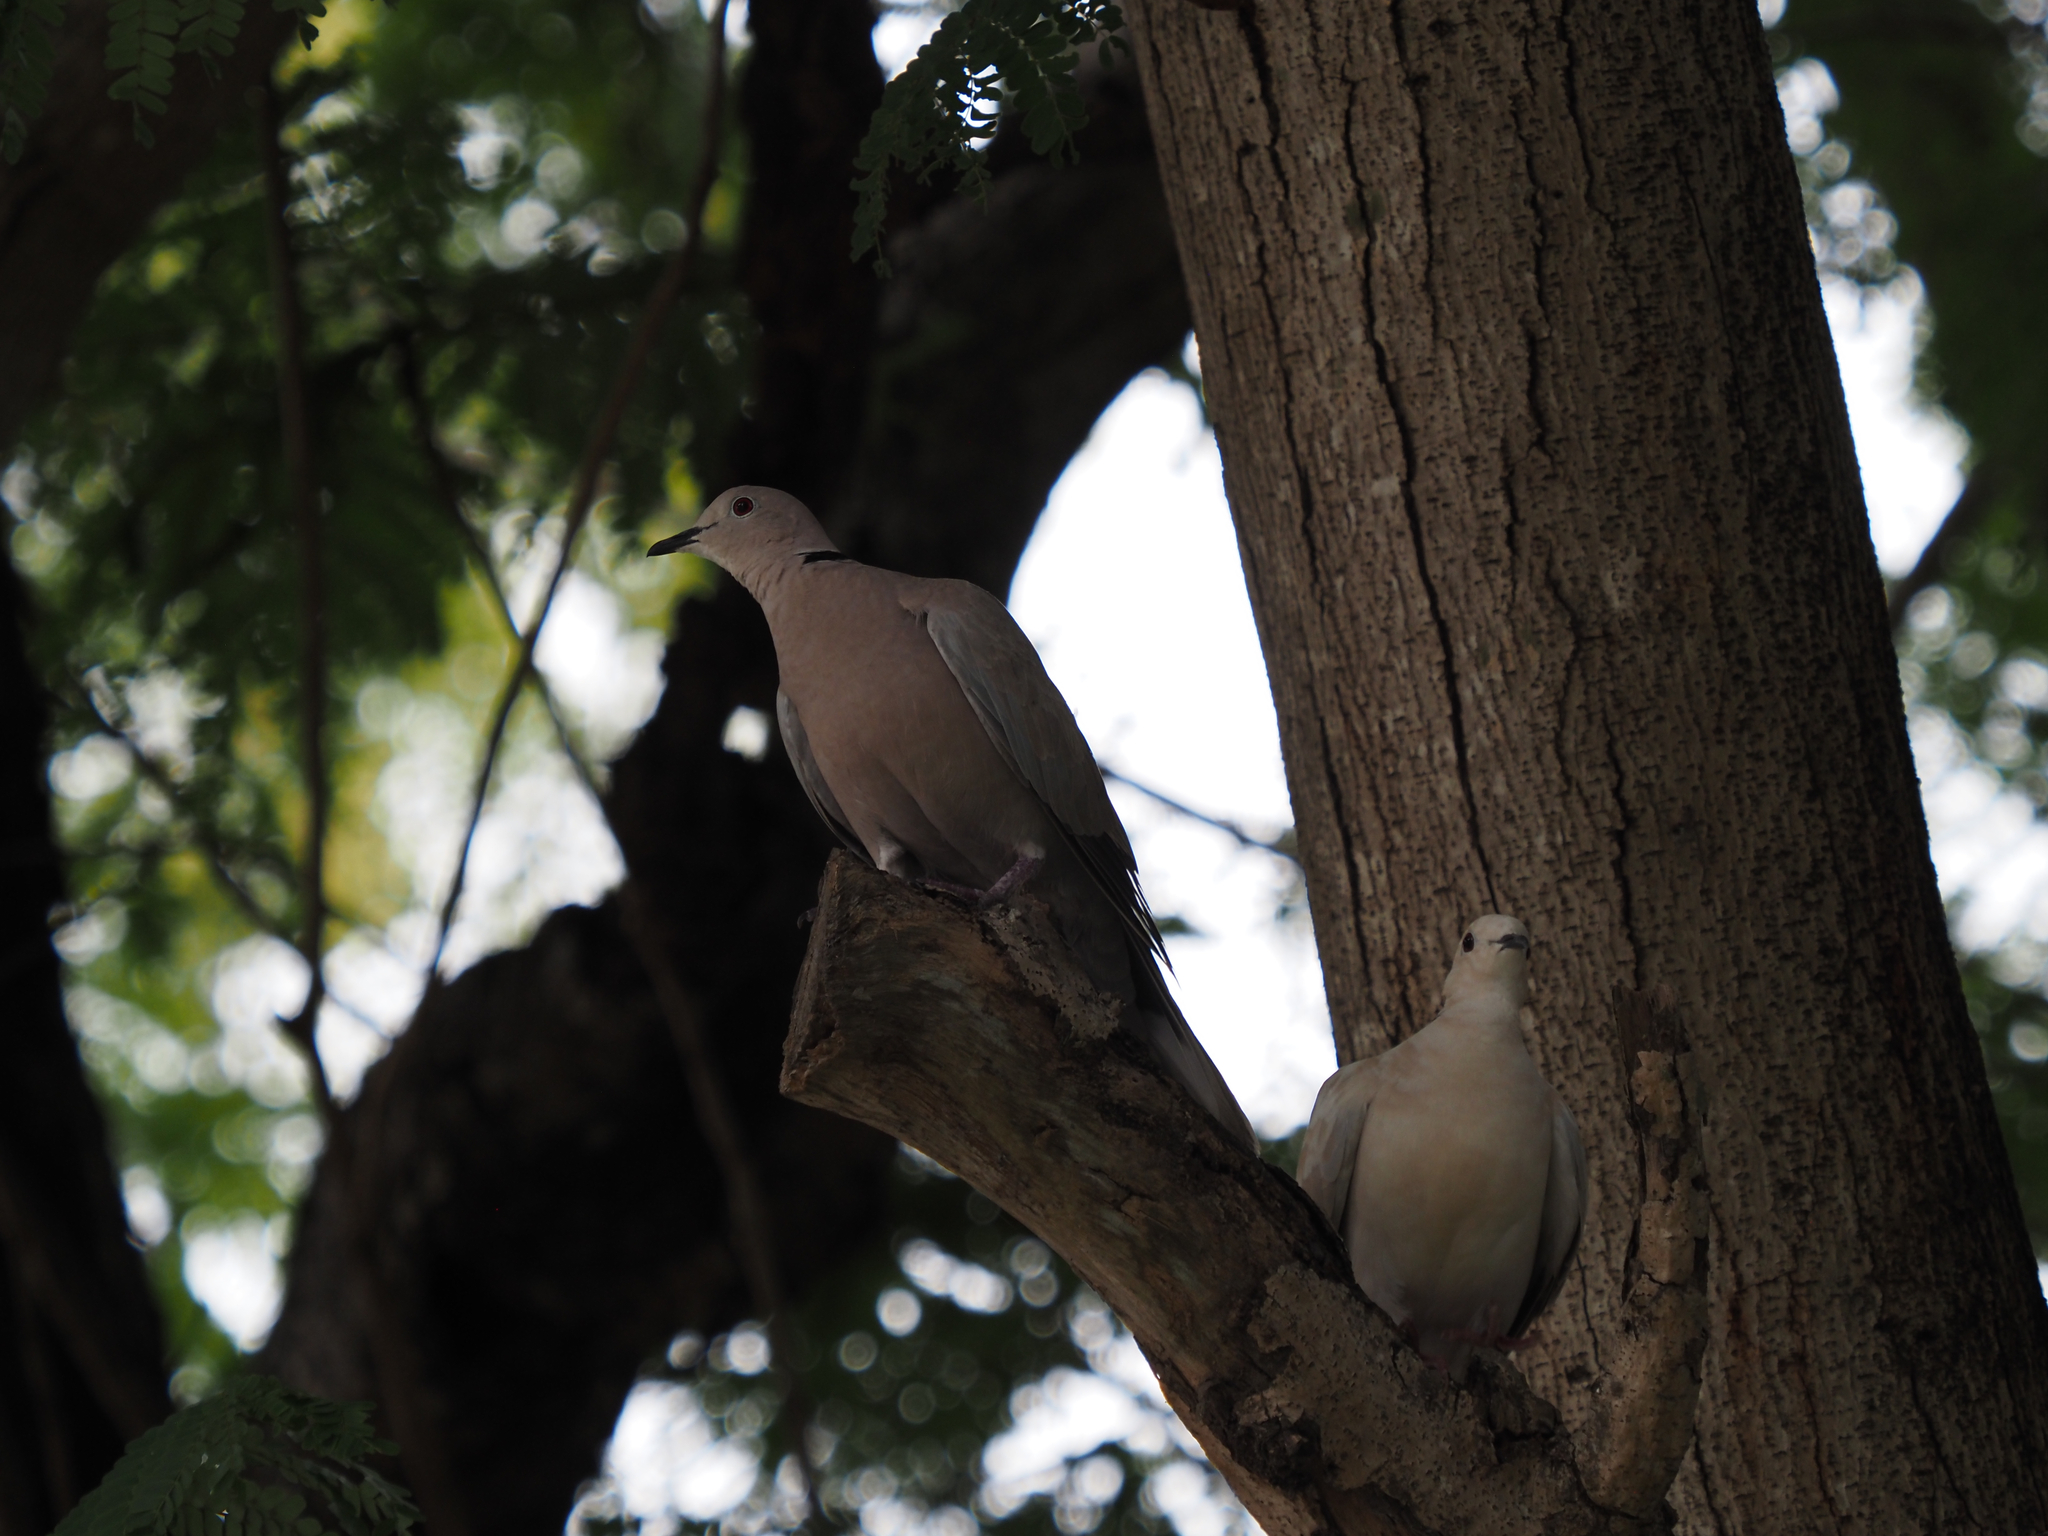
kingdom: Animalia
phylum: Chordata
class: Aves
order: Columbiformes
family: Columbidae
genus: Streptopelia
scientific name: Streptopelia decaocto
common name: Eurasian collared dove
